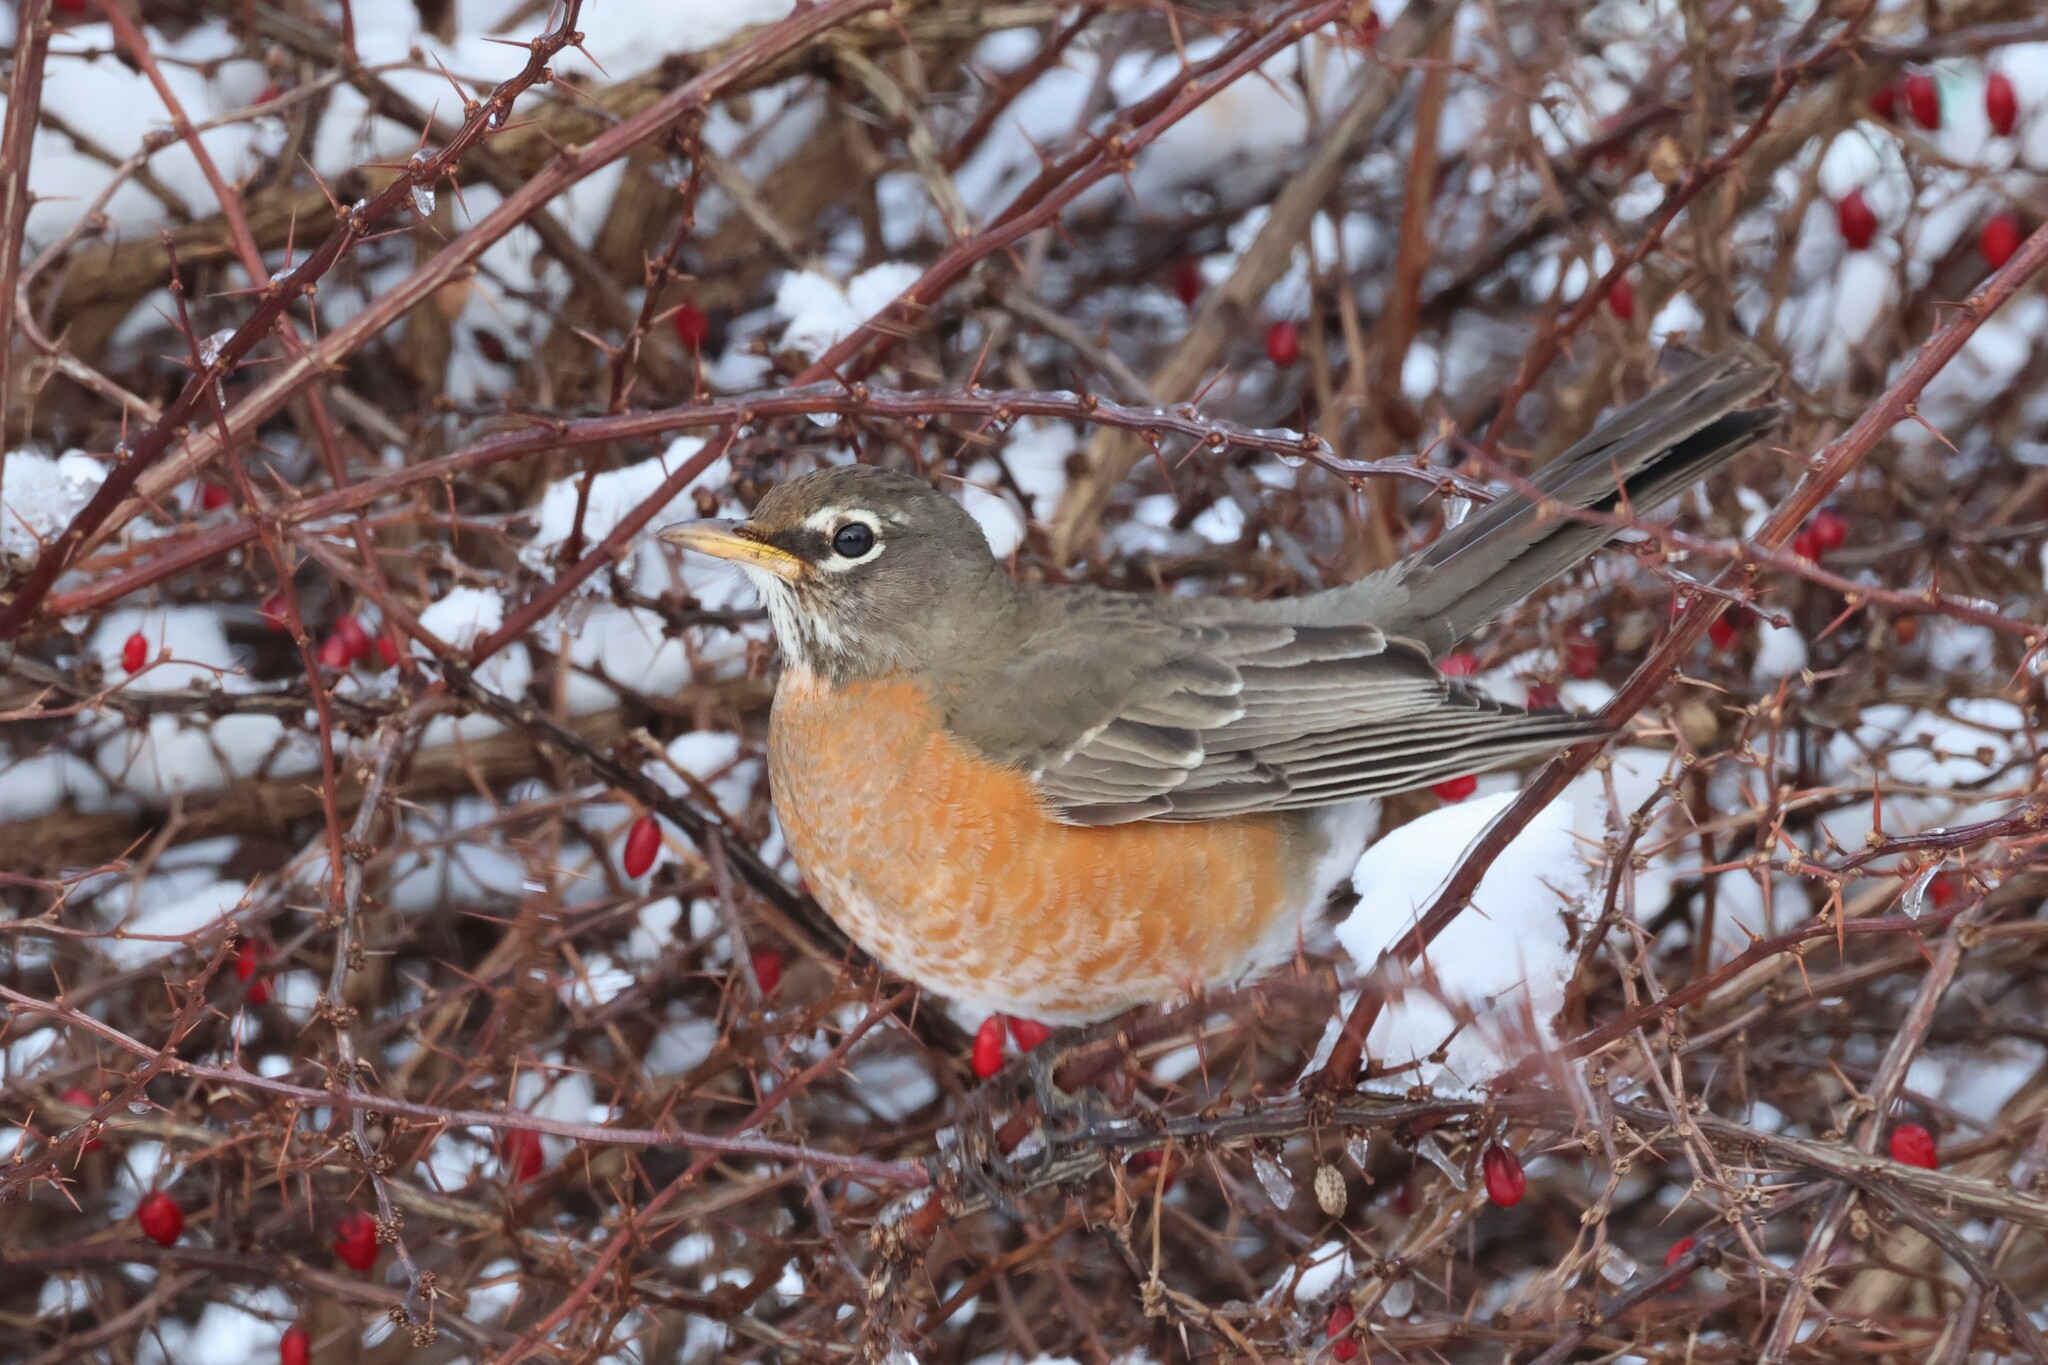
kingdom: Animalia
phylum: Chordata
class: Aves
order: Passeriformes
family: Turdidae
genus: Turdus
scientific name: Turdus migratorius
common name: American robin
